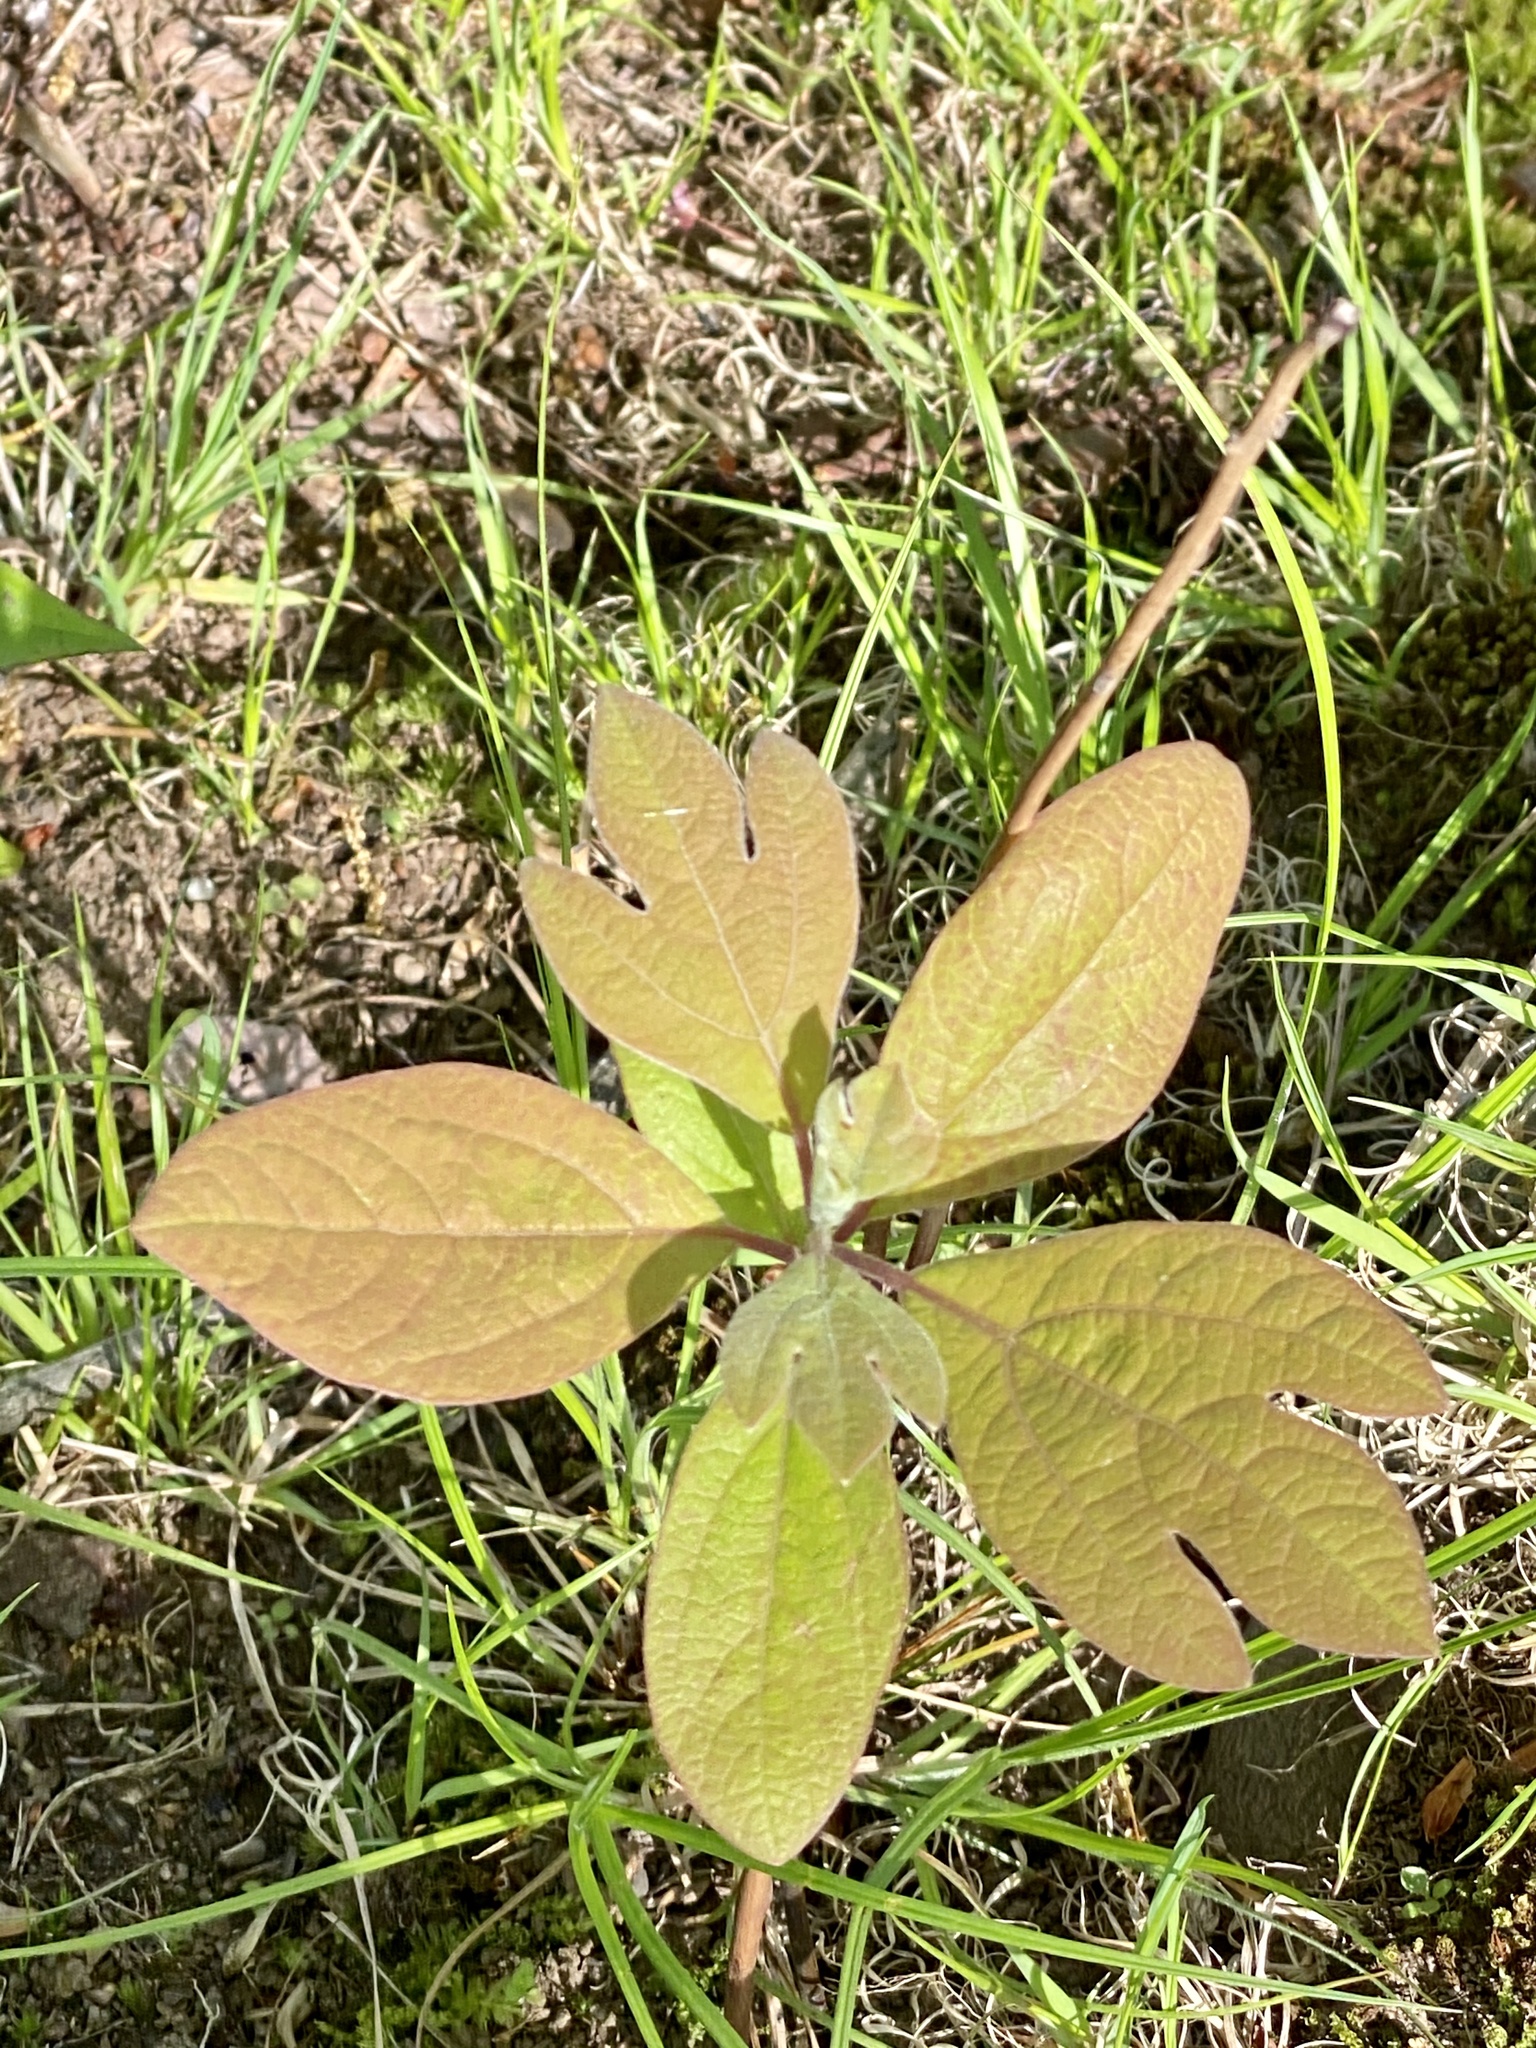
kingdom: Plantae
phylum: Tracheophyta
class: Magnoliopsida
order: Laurales
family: Lauraceae
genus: Sassafras
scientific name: Sassafras albidum
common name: Sassafras
